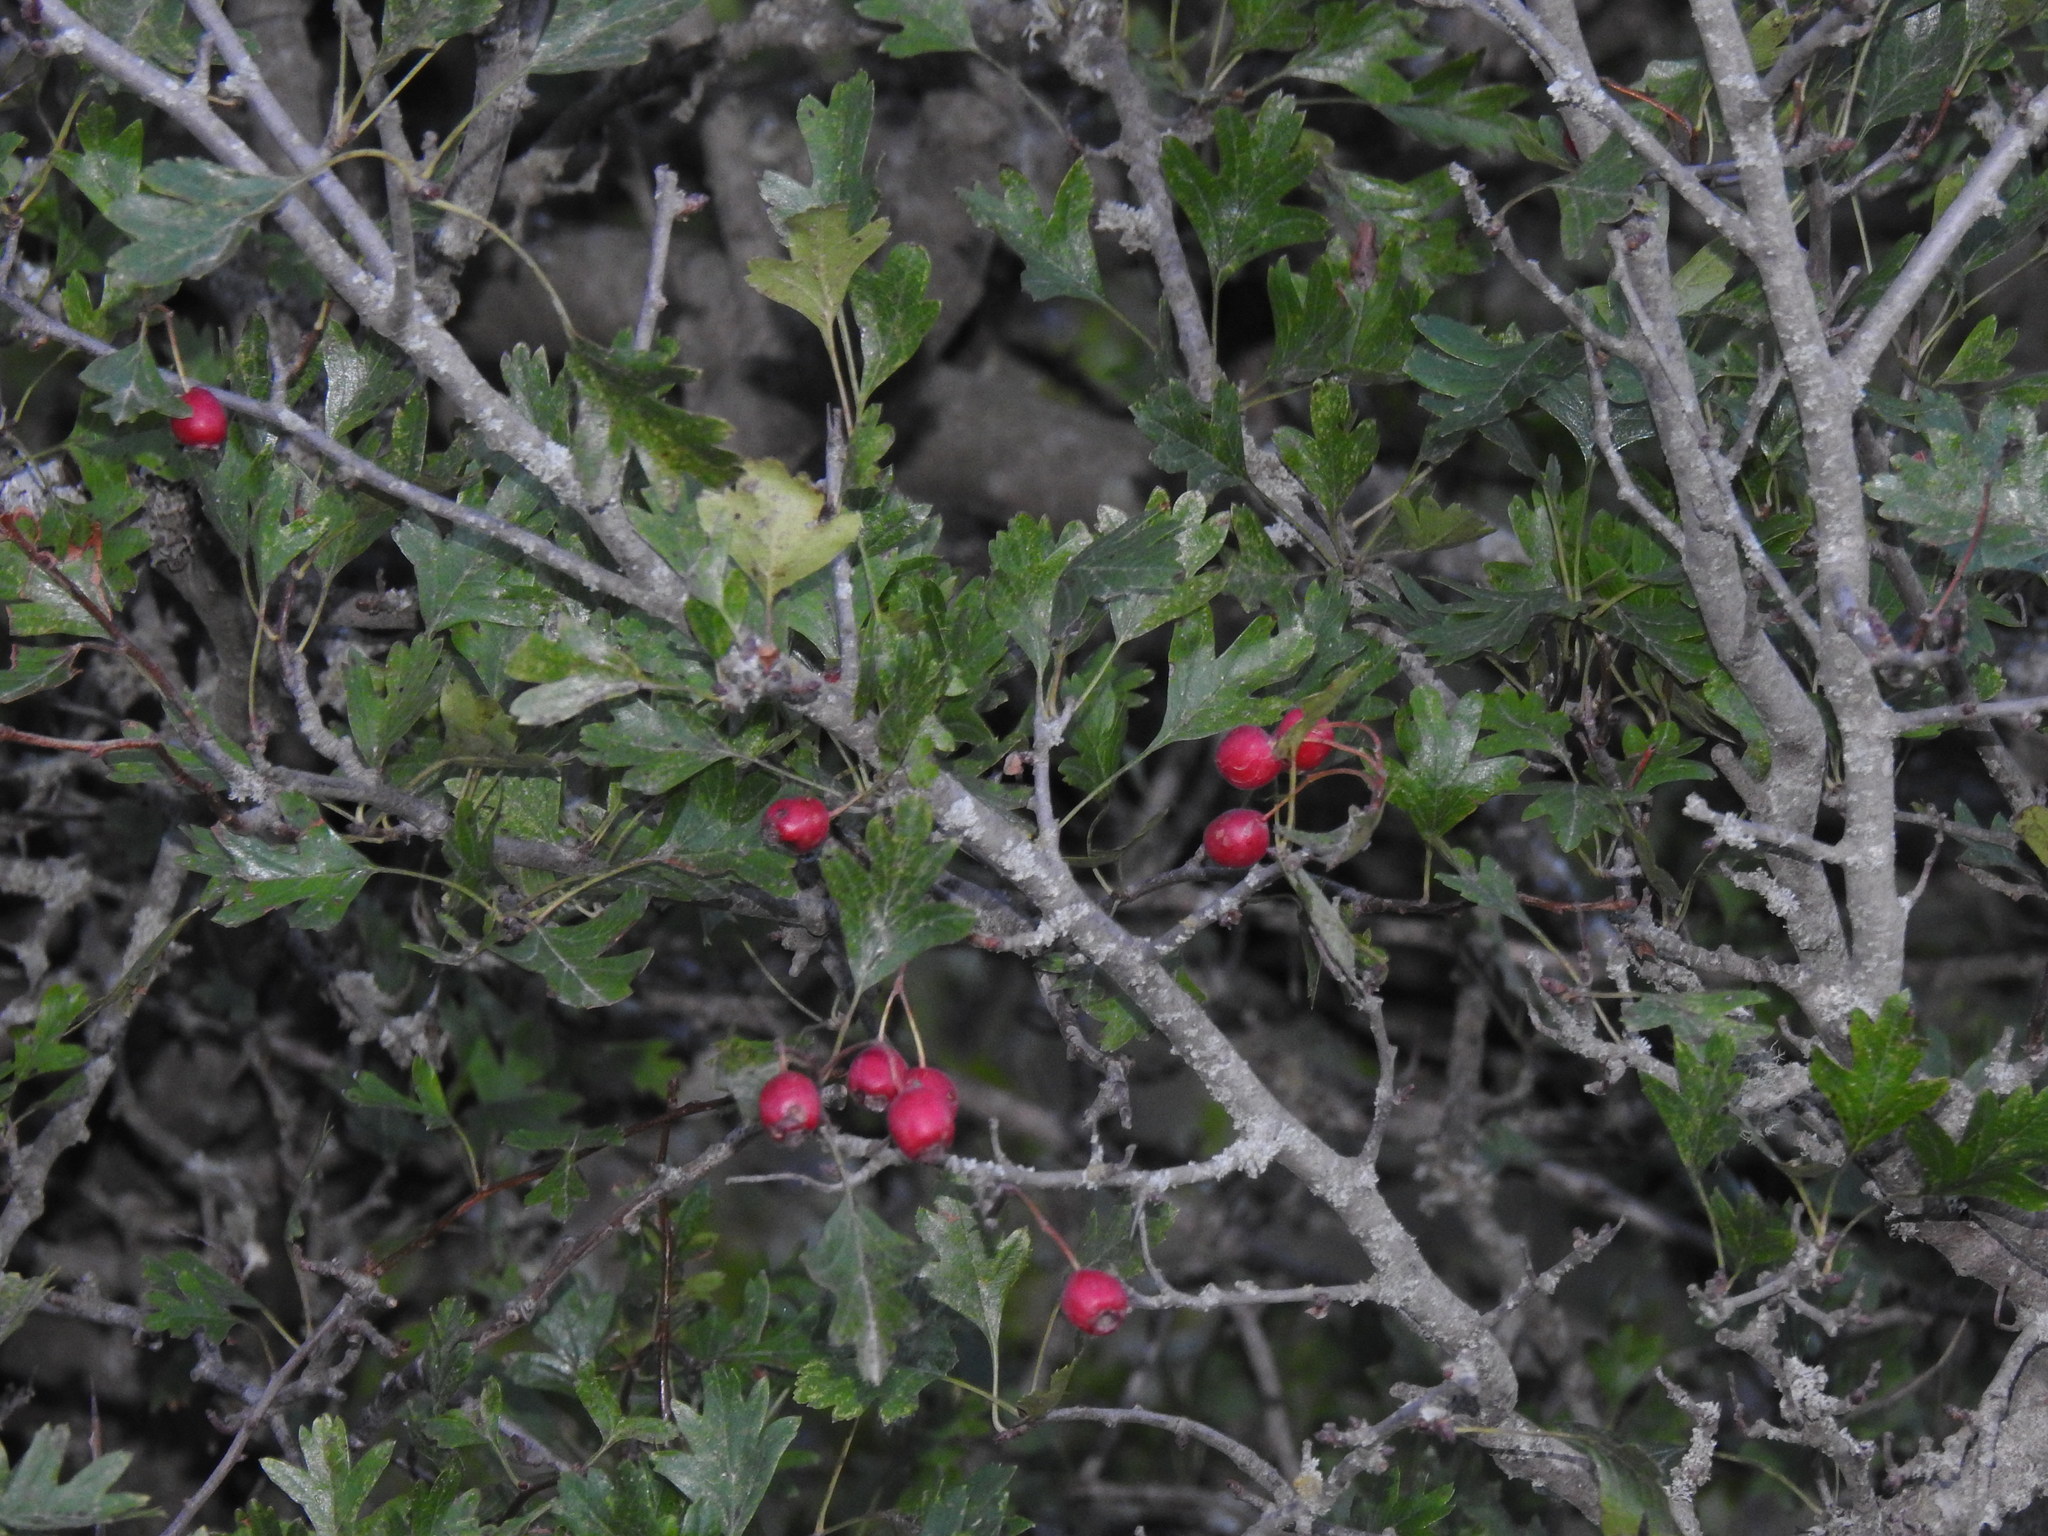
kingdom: Plantae
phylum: Tracheophyta
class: Magnoliopsida
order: Rosales
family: Rosaceae
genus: Crataegus
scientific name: Crataegus monogyna
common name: Hawthorn
